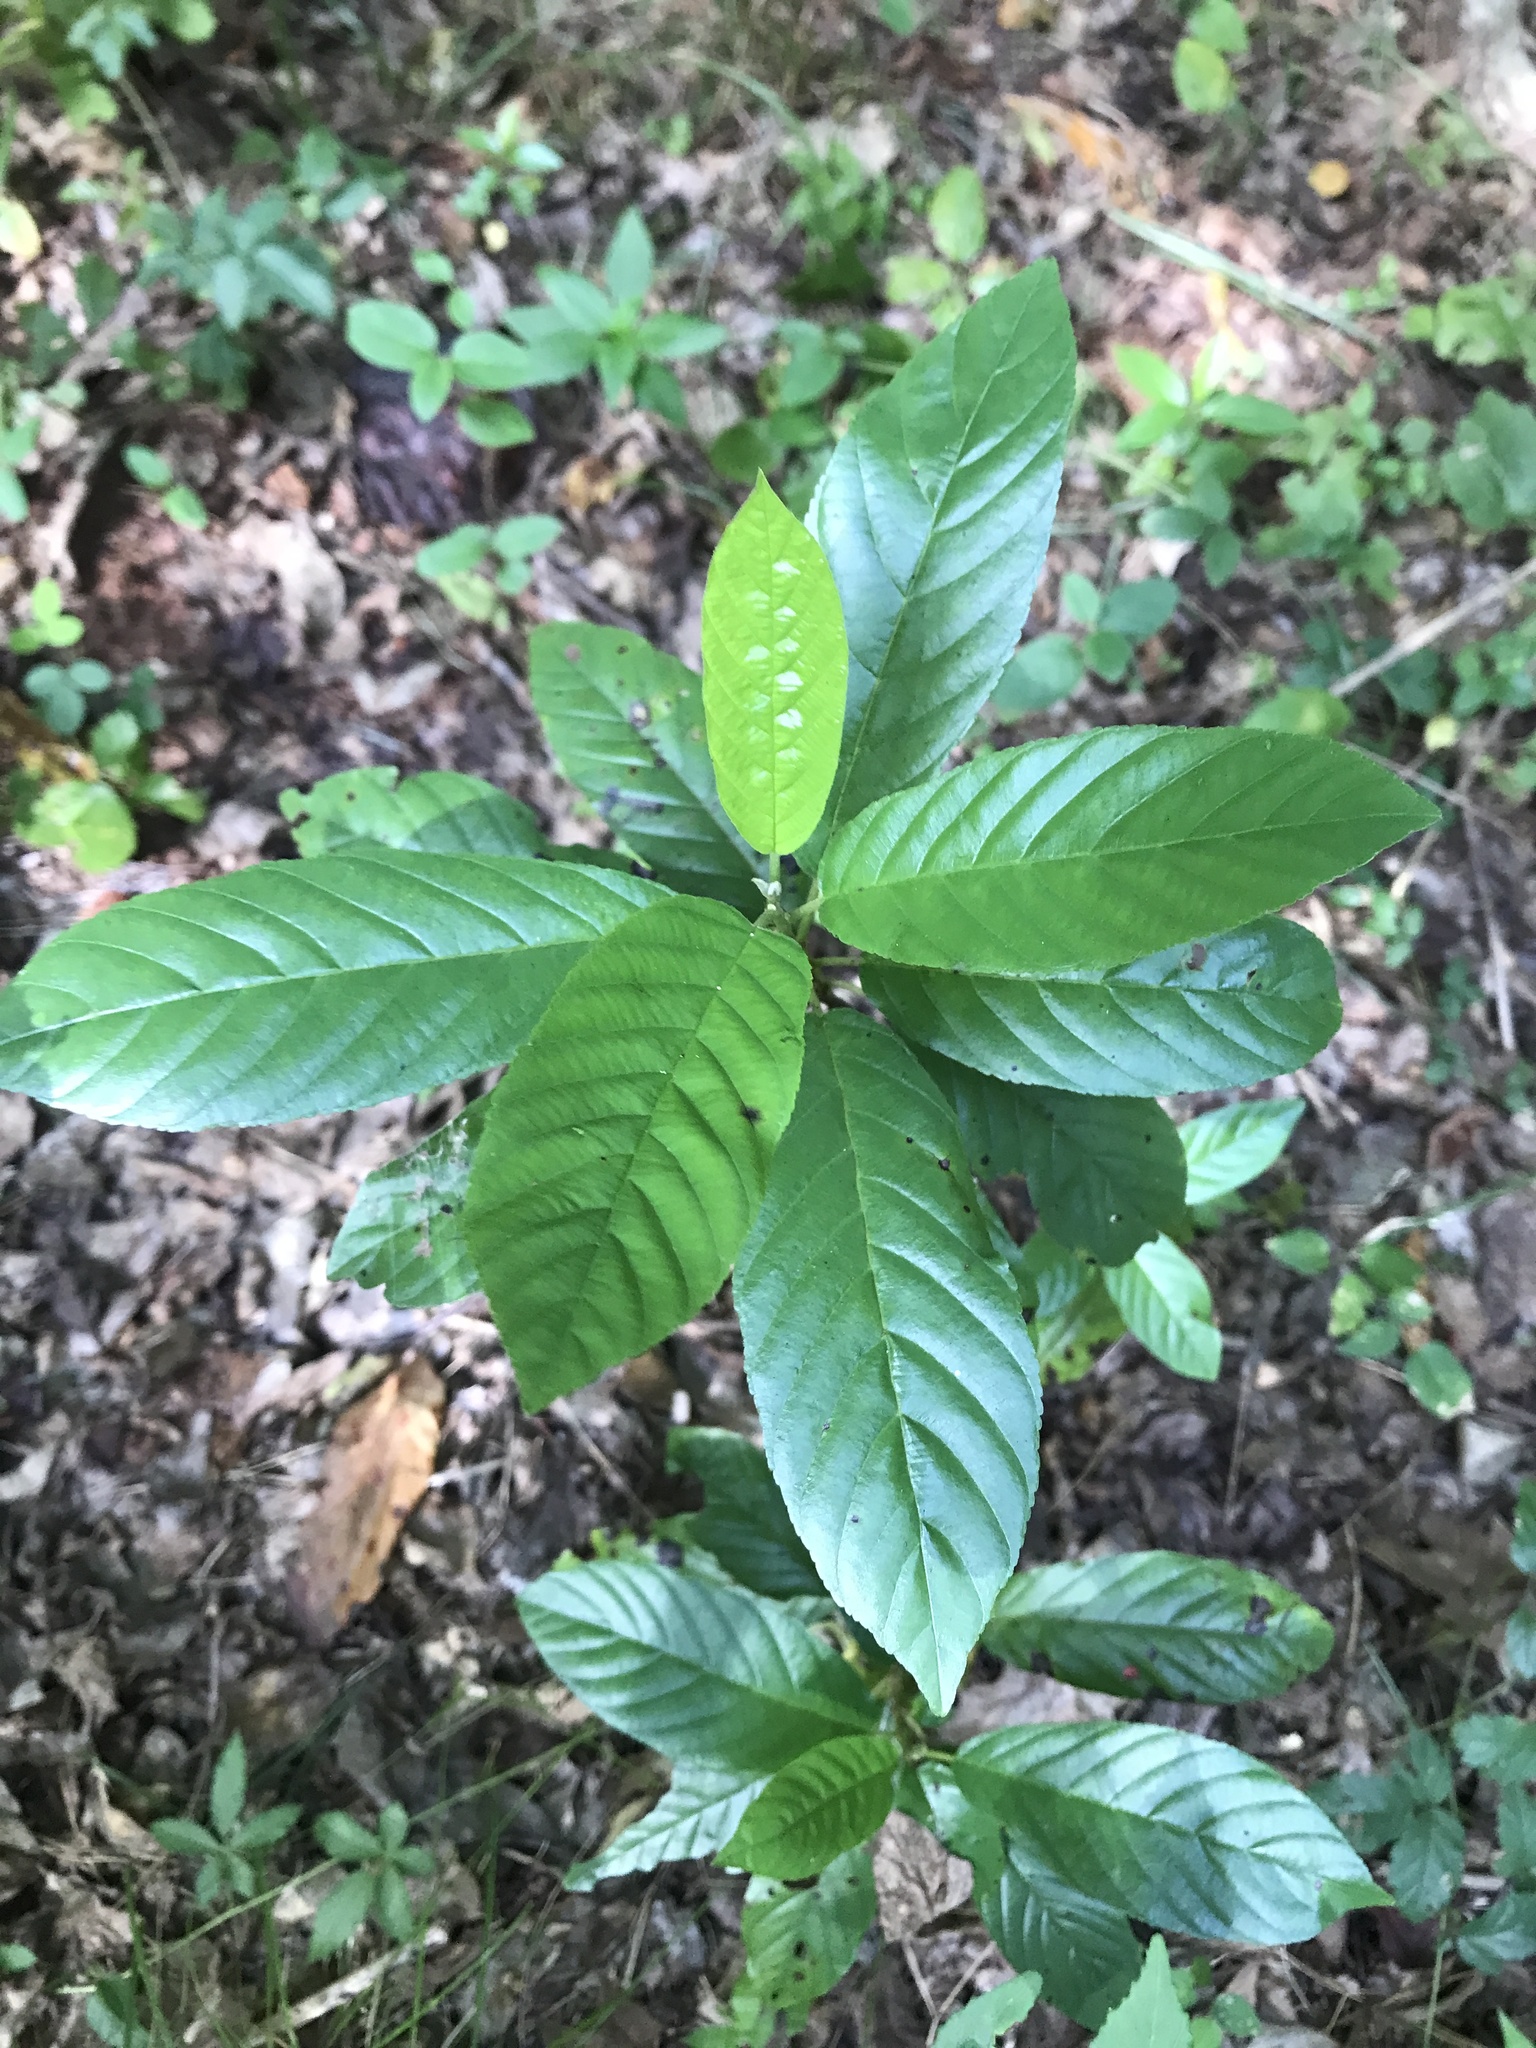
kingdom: Plantae
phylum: Tracheophyta
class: Magnoliopsida
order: Rosales
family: Rhamnaceae
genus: Frangula
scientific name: Frangula caroliniana
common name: Carolina buckthorn
